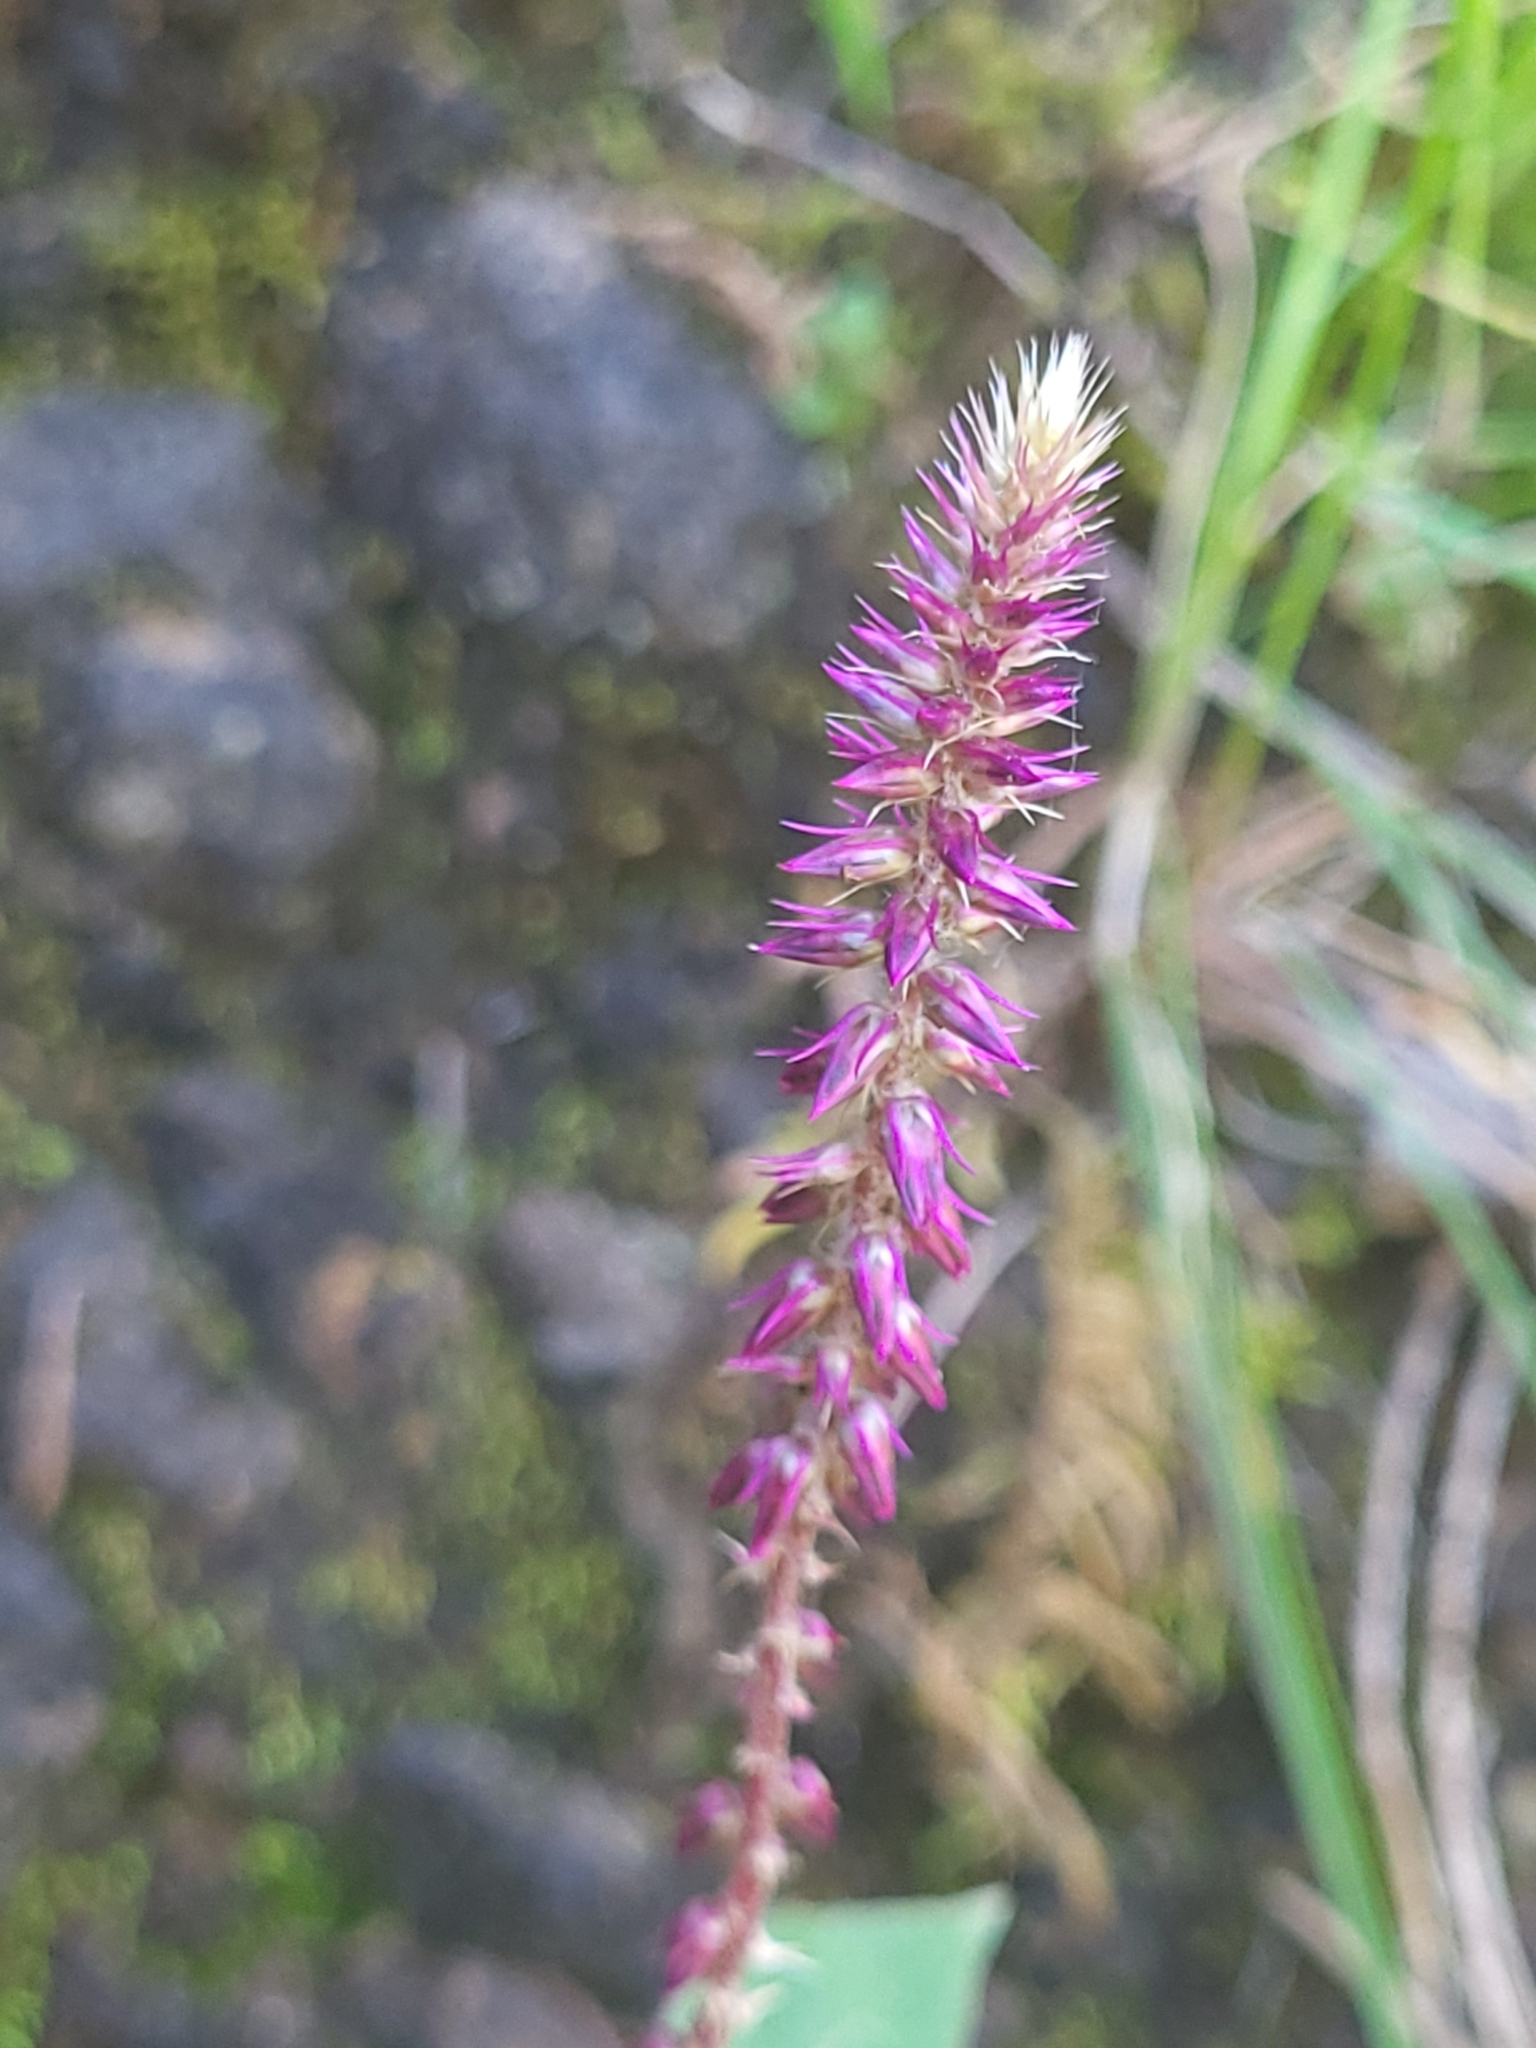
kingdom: Plantae
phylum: Tracheophyta
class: Magnoliopsida
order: Caryophyllales
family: Amaranthaceae
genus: Achyranthes
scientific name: Achyranthes aspera
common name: Devil's horsewhip
